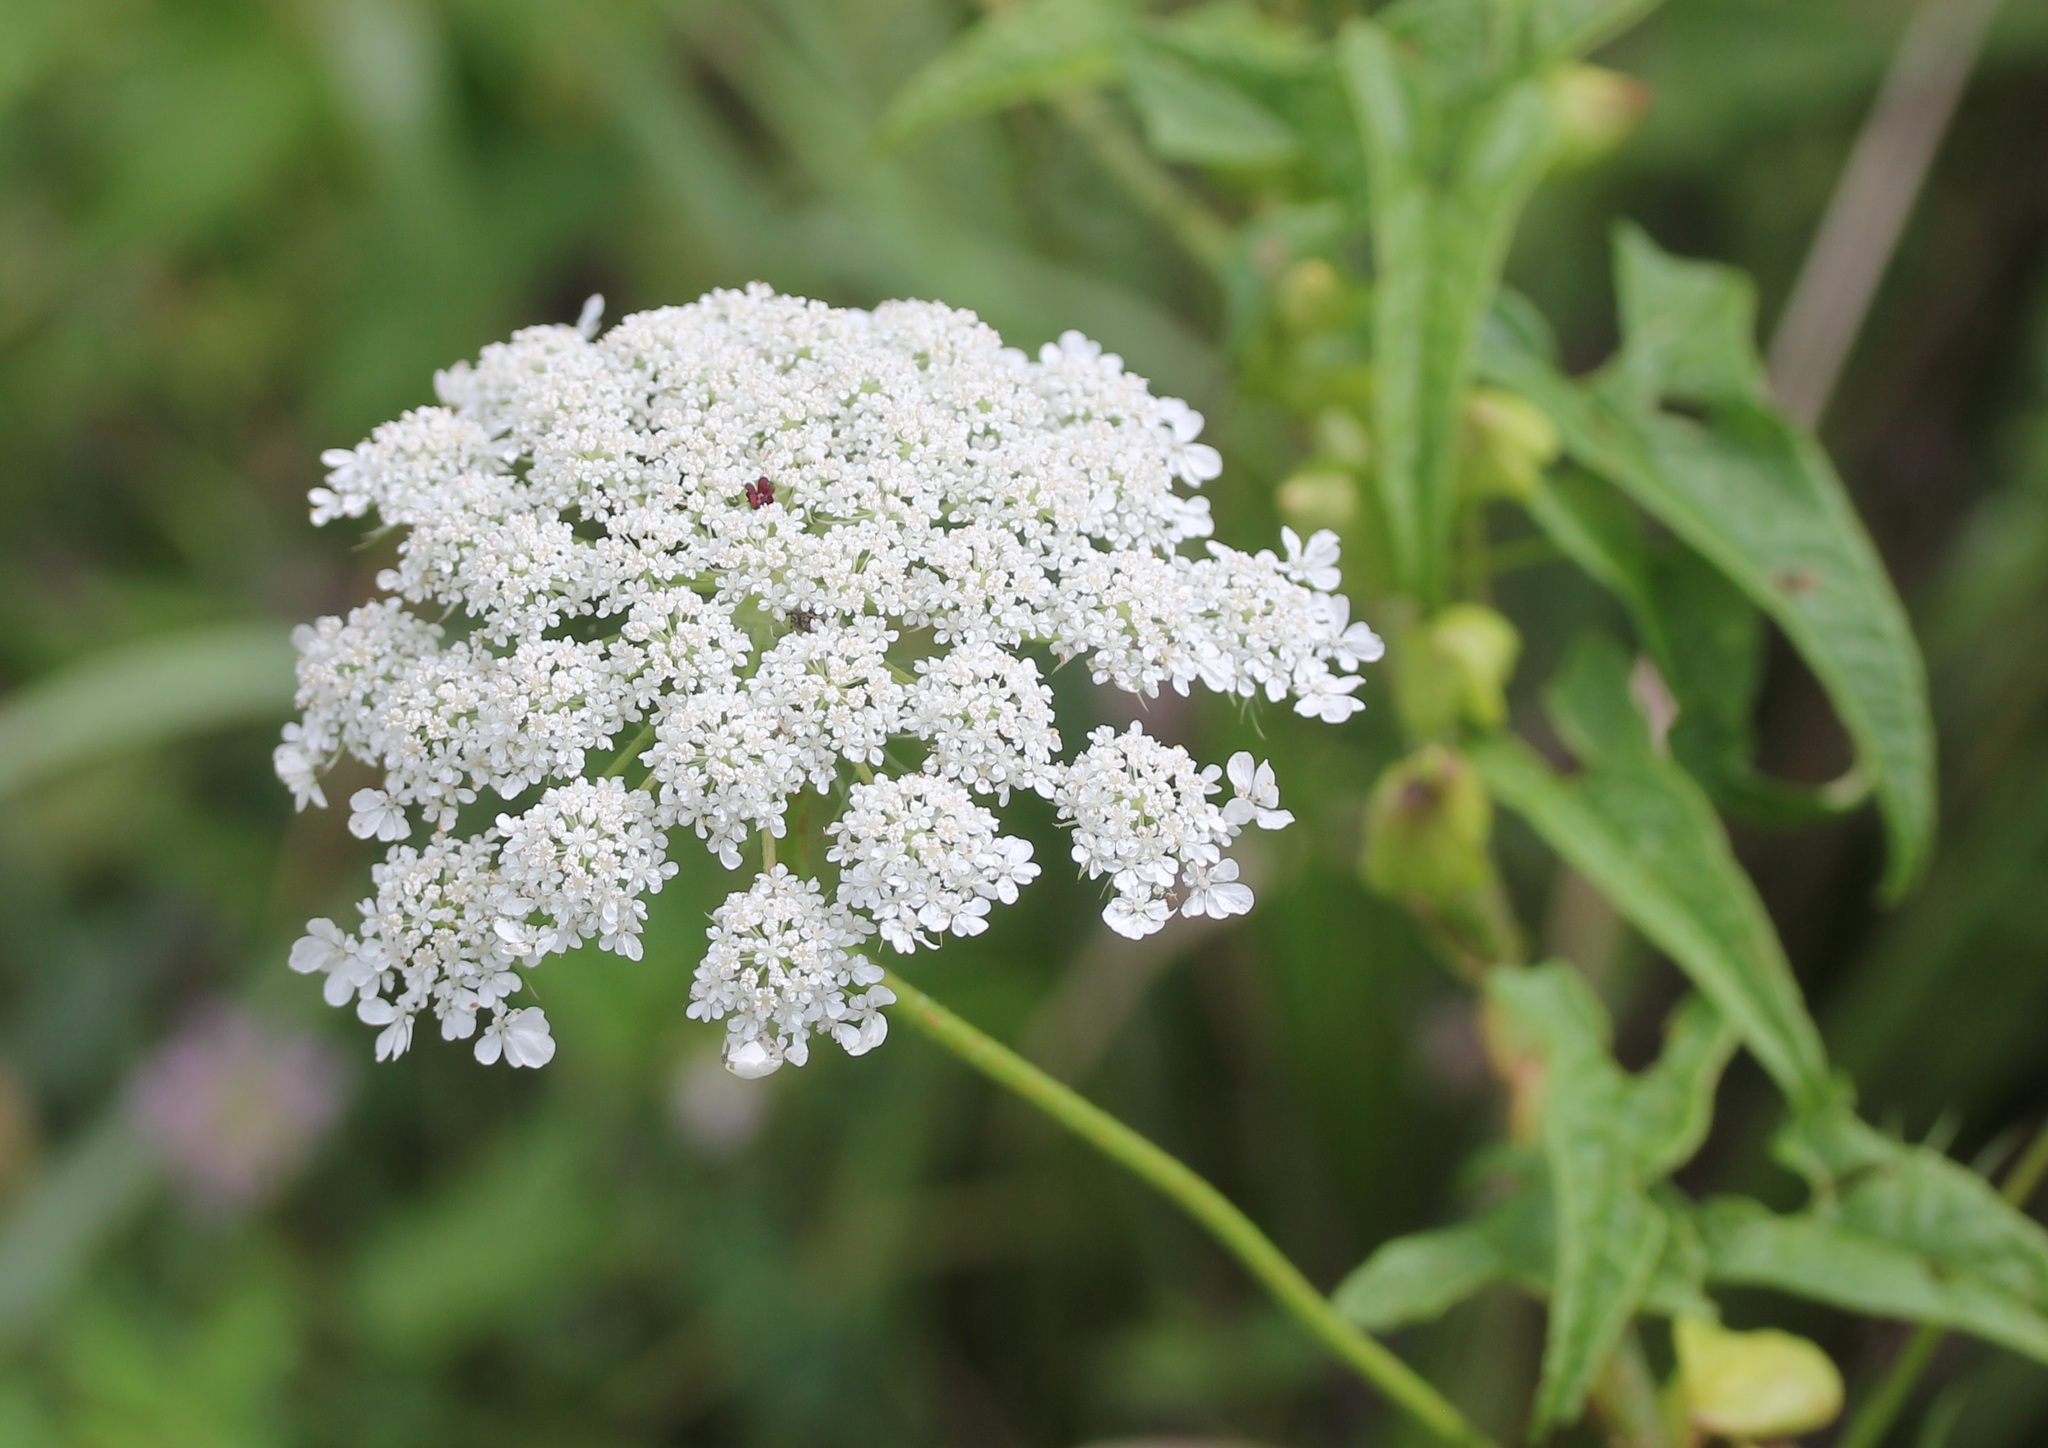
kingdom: Plantae
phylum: Tracheophyta
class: Magnoliopsida
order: Apiales
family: Apiaceae
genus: Daucus
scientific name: Daucus carota
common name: Wild carrot
